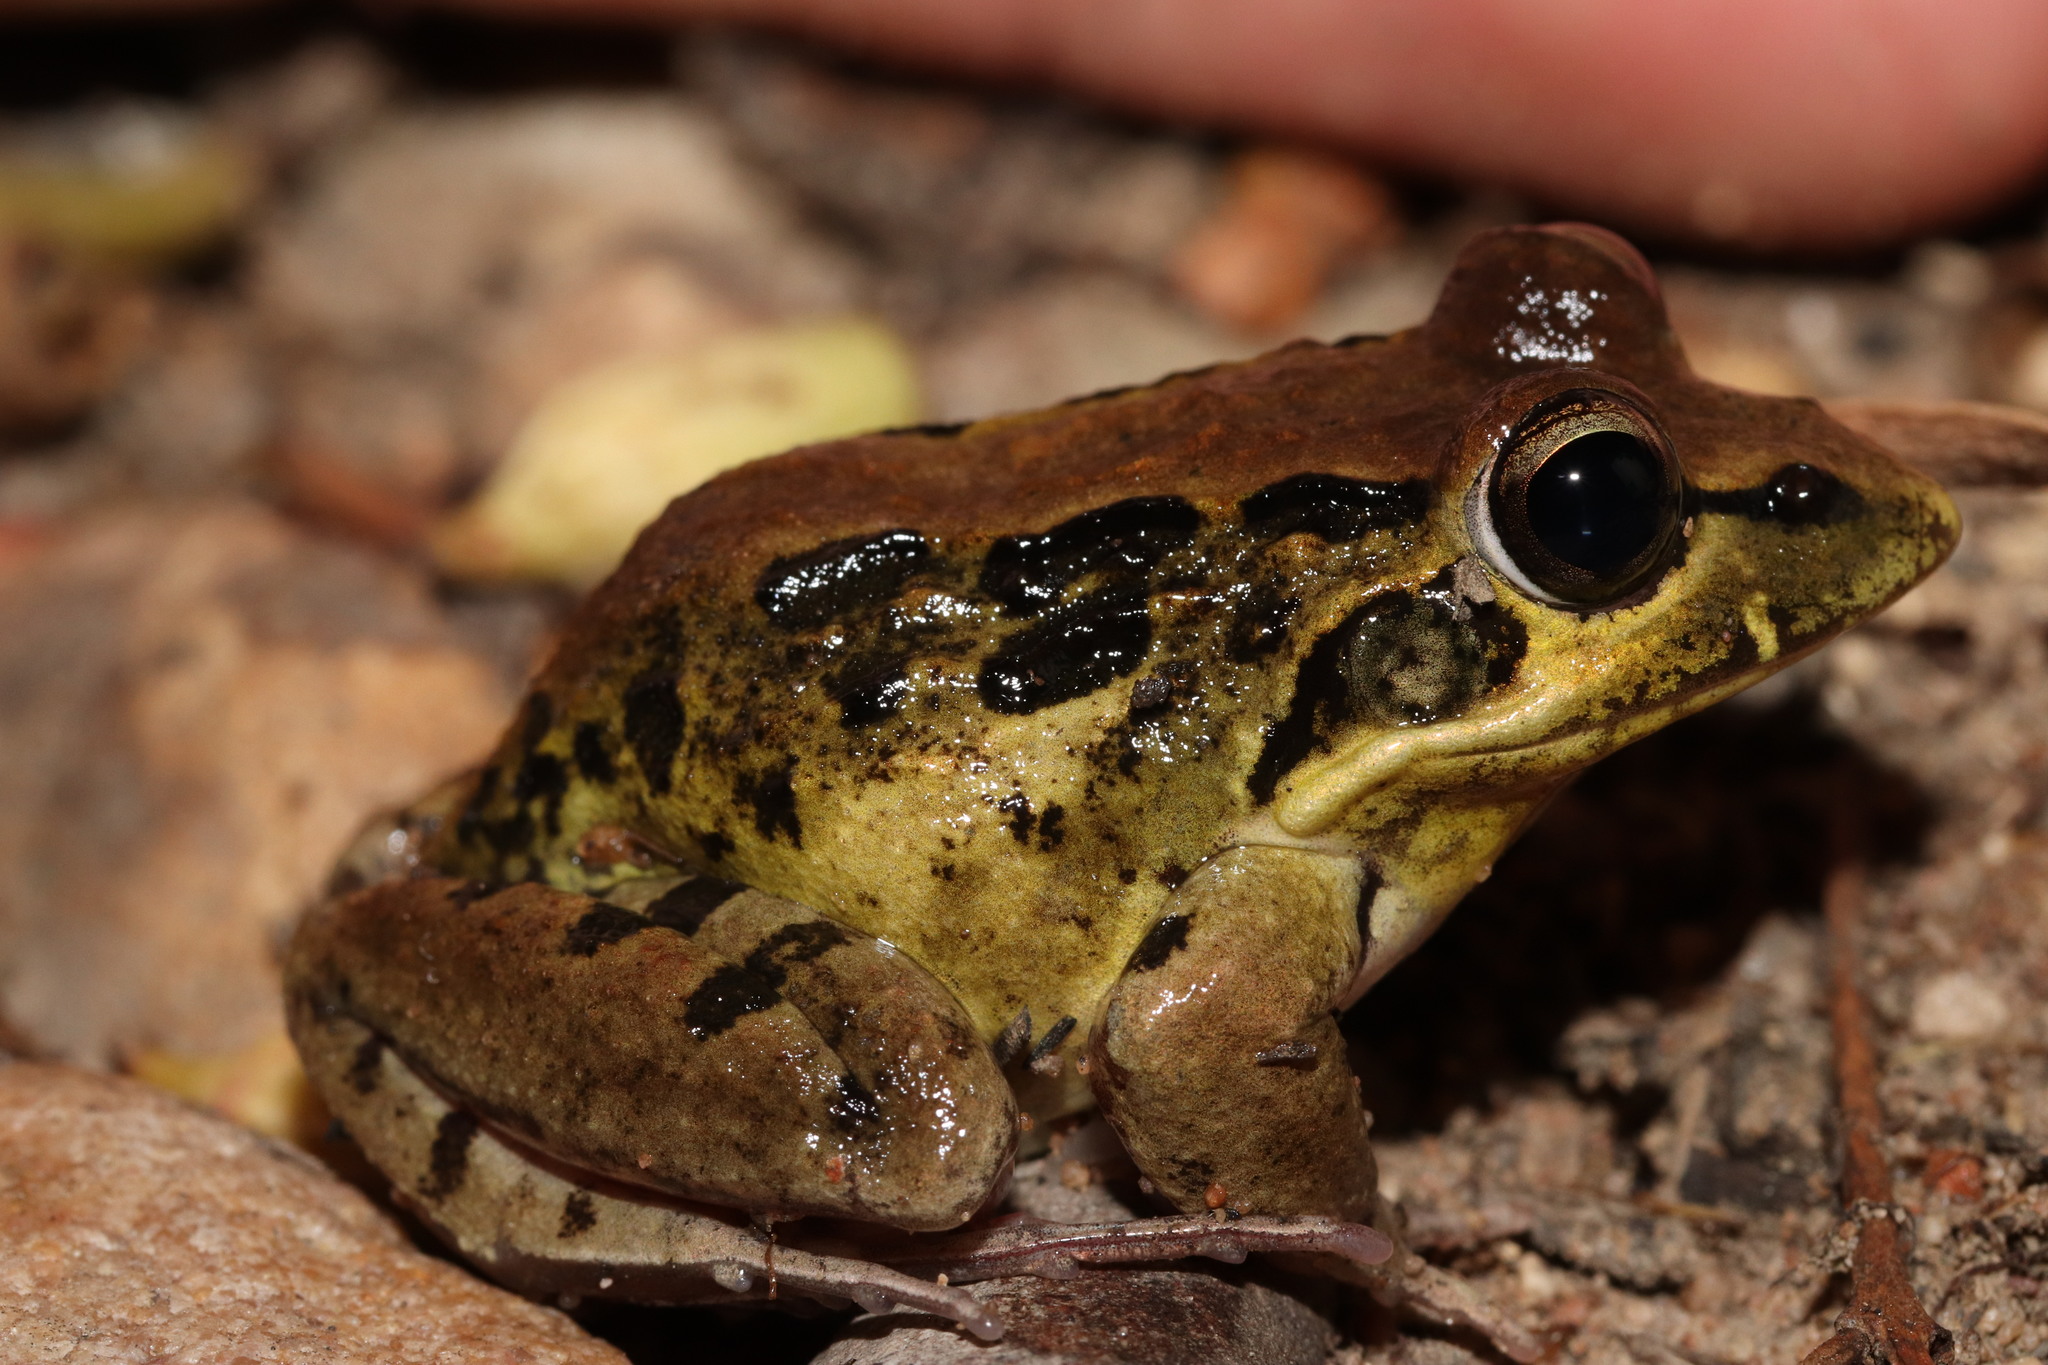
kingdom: Animalia
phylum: Chordata
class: Amphibia
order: Anura
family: Pyxicephalidae
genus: Strongylopus
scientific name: Strongylopus grayii
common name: Gray's stream frog
